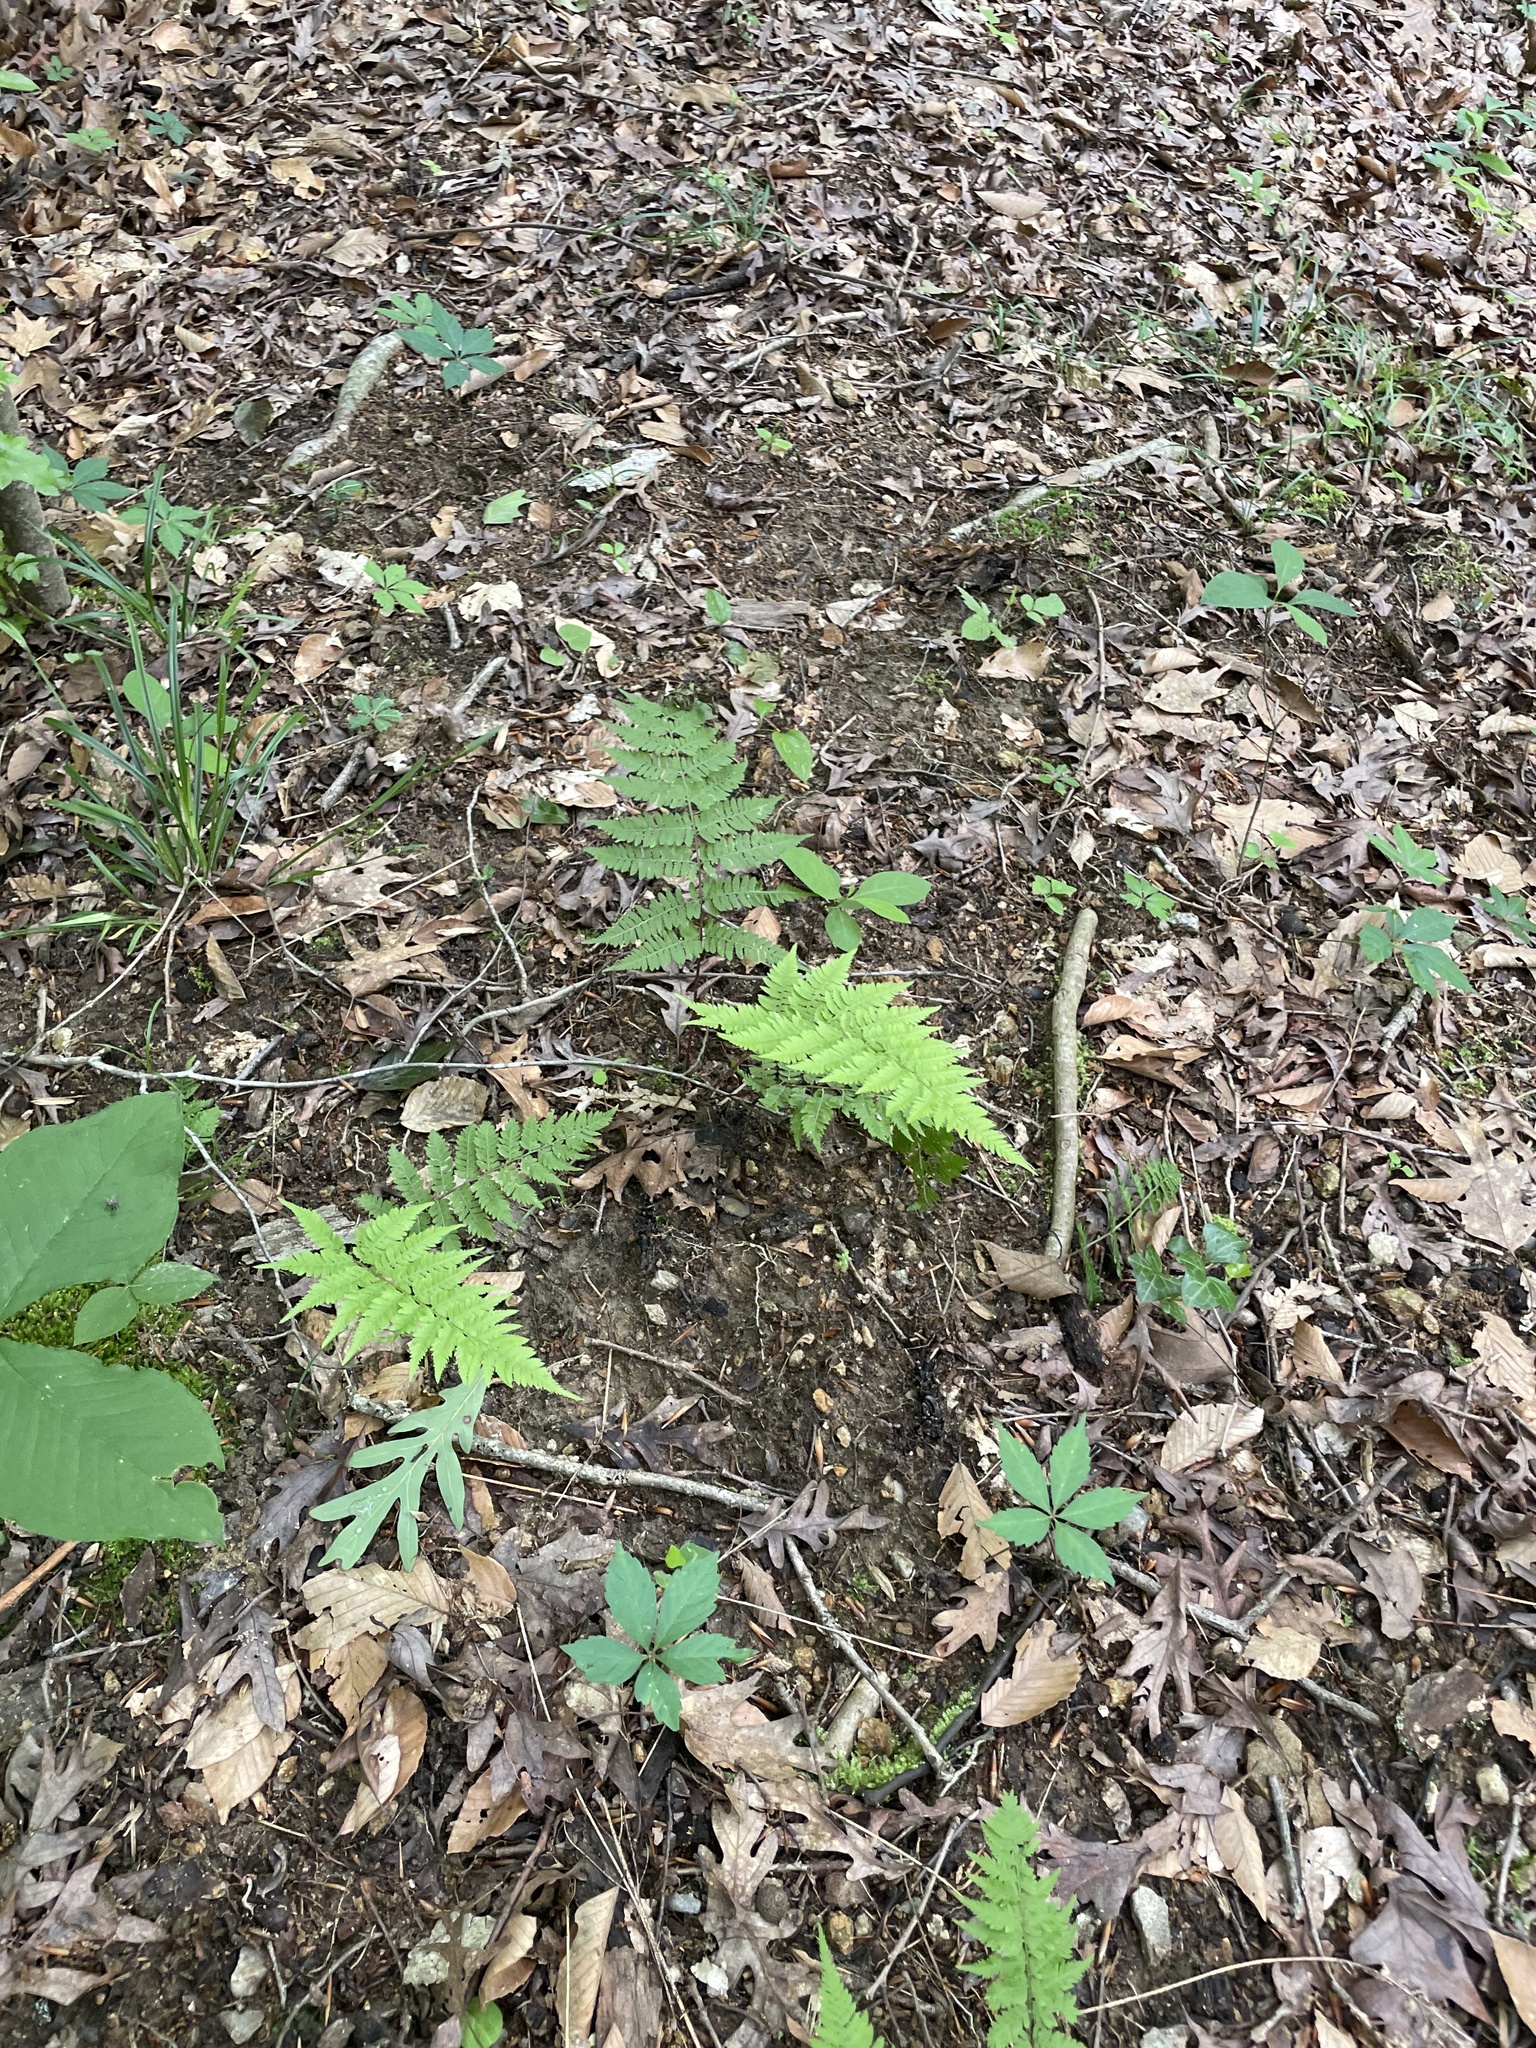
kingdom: Plantae
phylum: Tracheophyta
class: Polypodiopsida
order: Polypodiales
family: Athyriaceae
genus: Athyrium
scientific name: Athyrium asplenioides
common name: Southern lady fern
